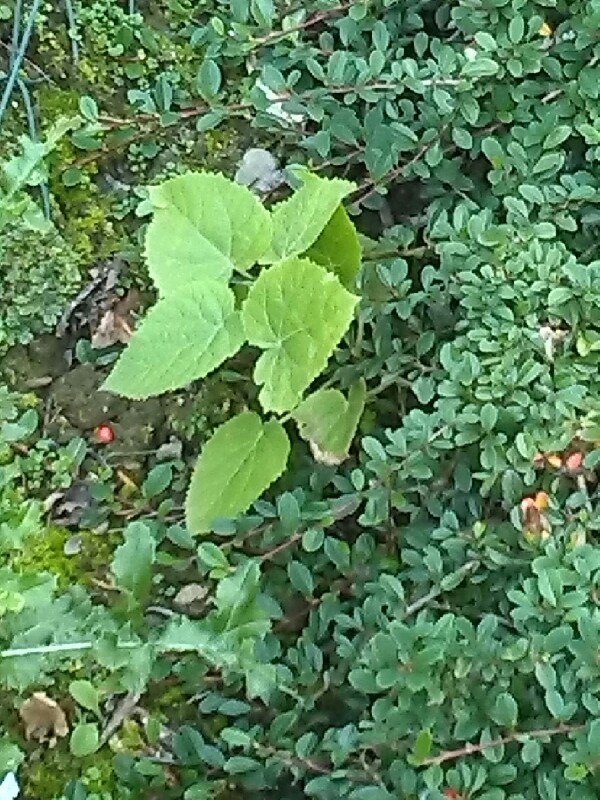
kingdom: Plantae
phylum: Tracheophyta
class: Magnoliopsida
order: Lamiales
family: Paulowniaceae
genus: Paulownia
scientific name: Paulownia tomentosa
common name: Foxglove-tree
